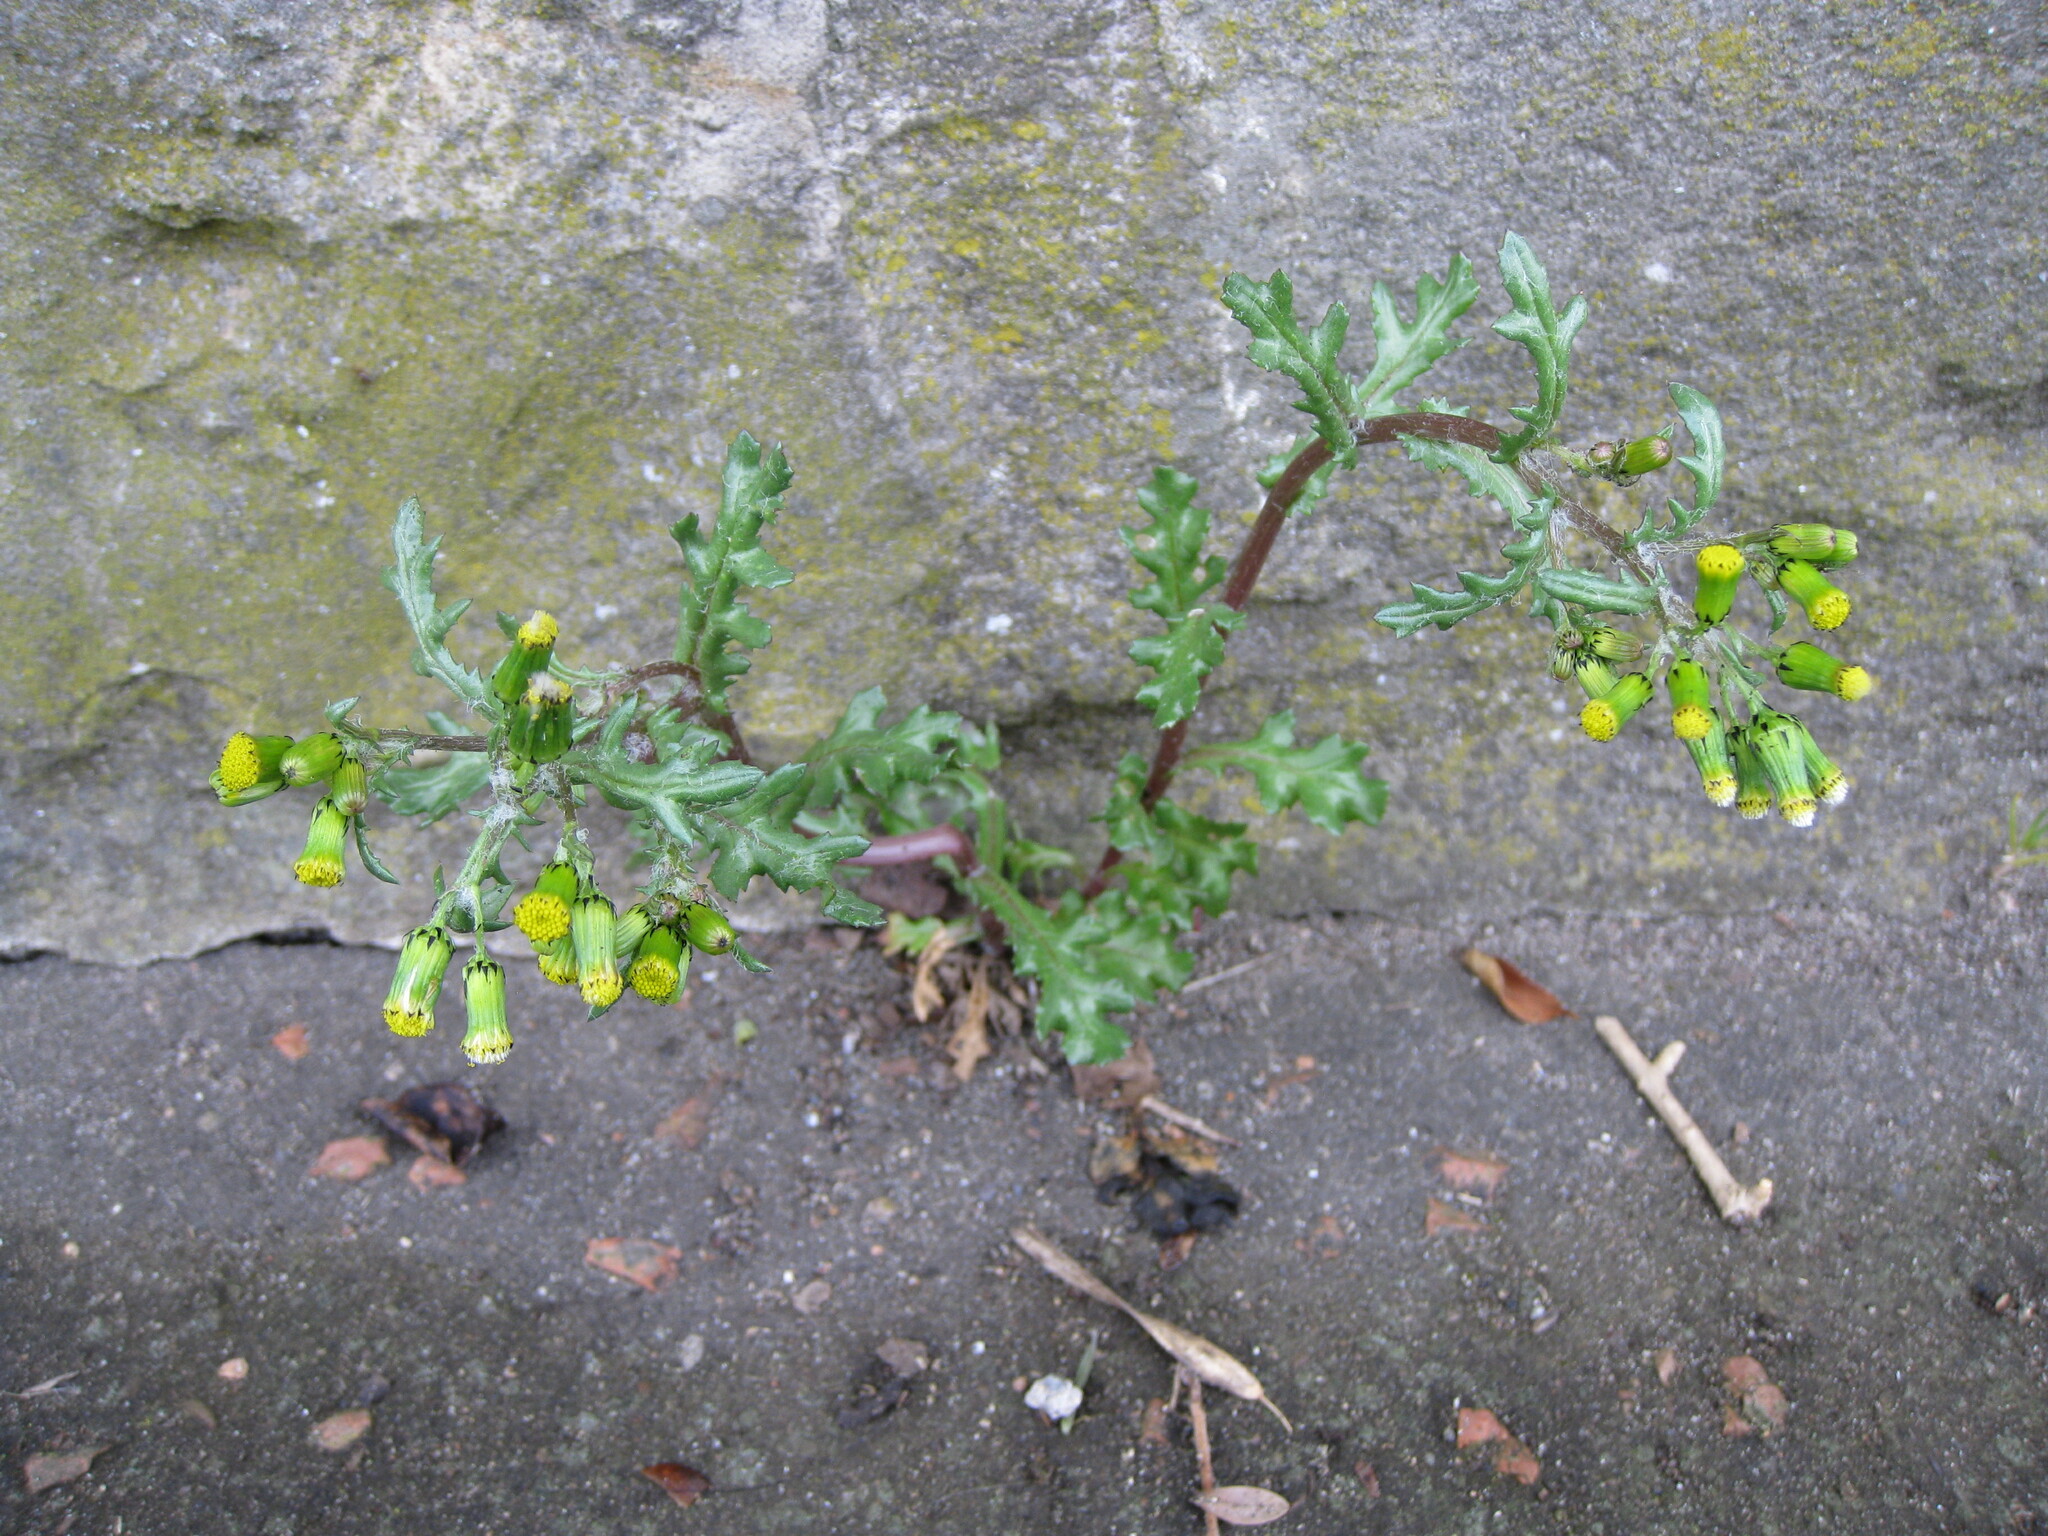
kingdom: Plantae
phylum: Tracheophyta
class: Magnoliopsida
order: Asterales
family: Asteraceae
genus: Senecio
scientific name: Senecio vulgaris
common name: Old-man-in-the-spring
